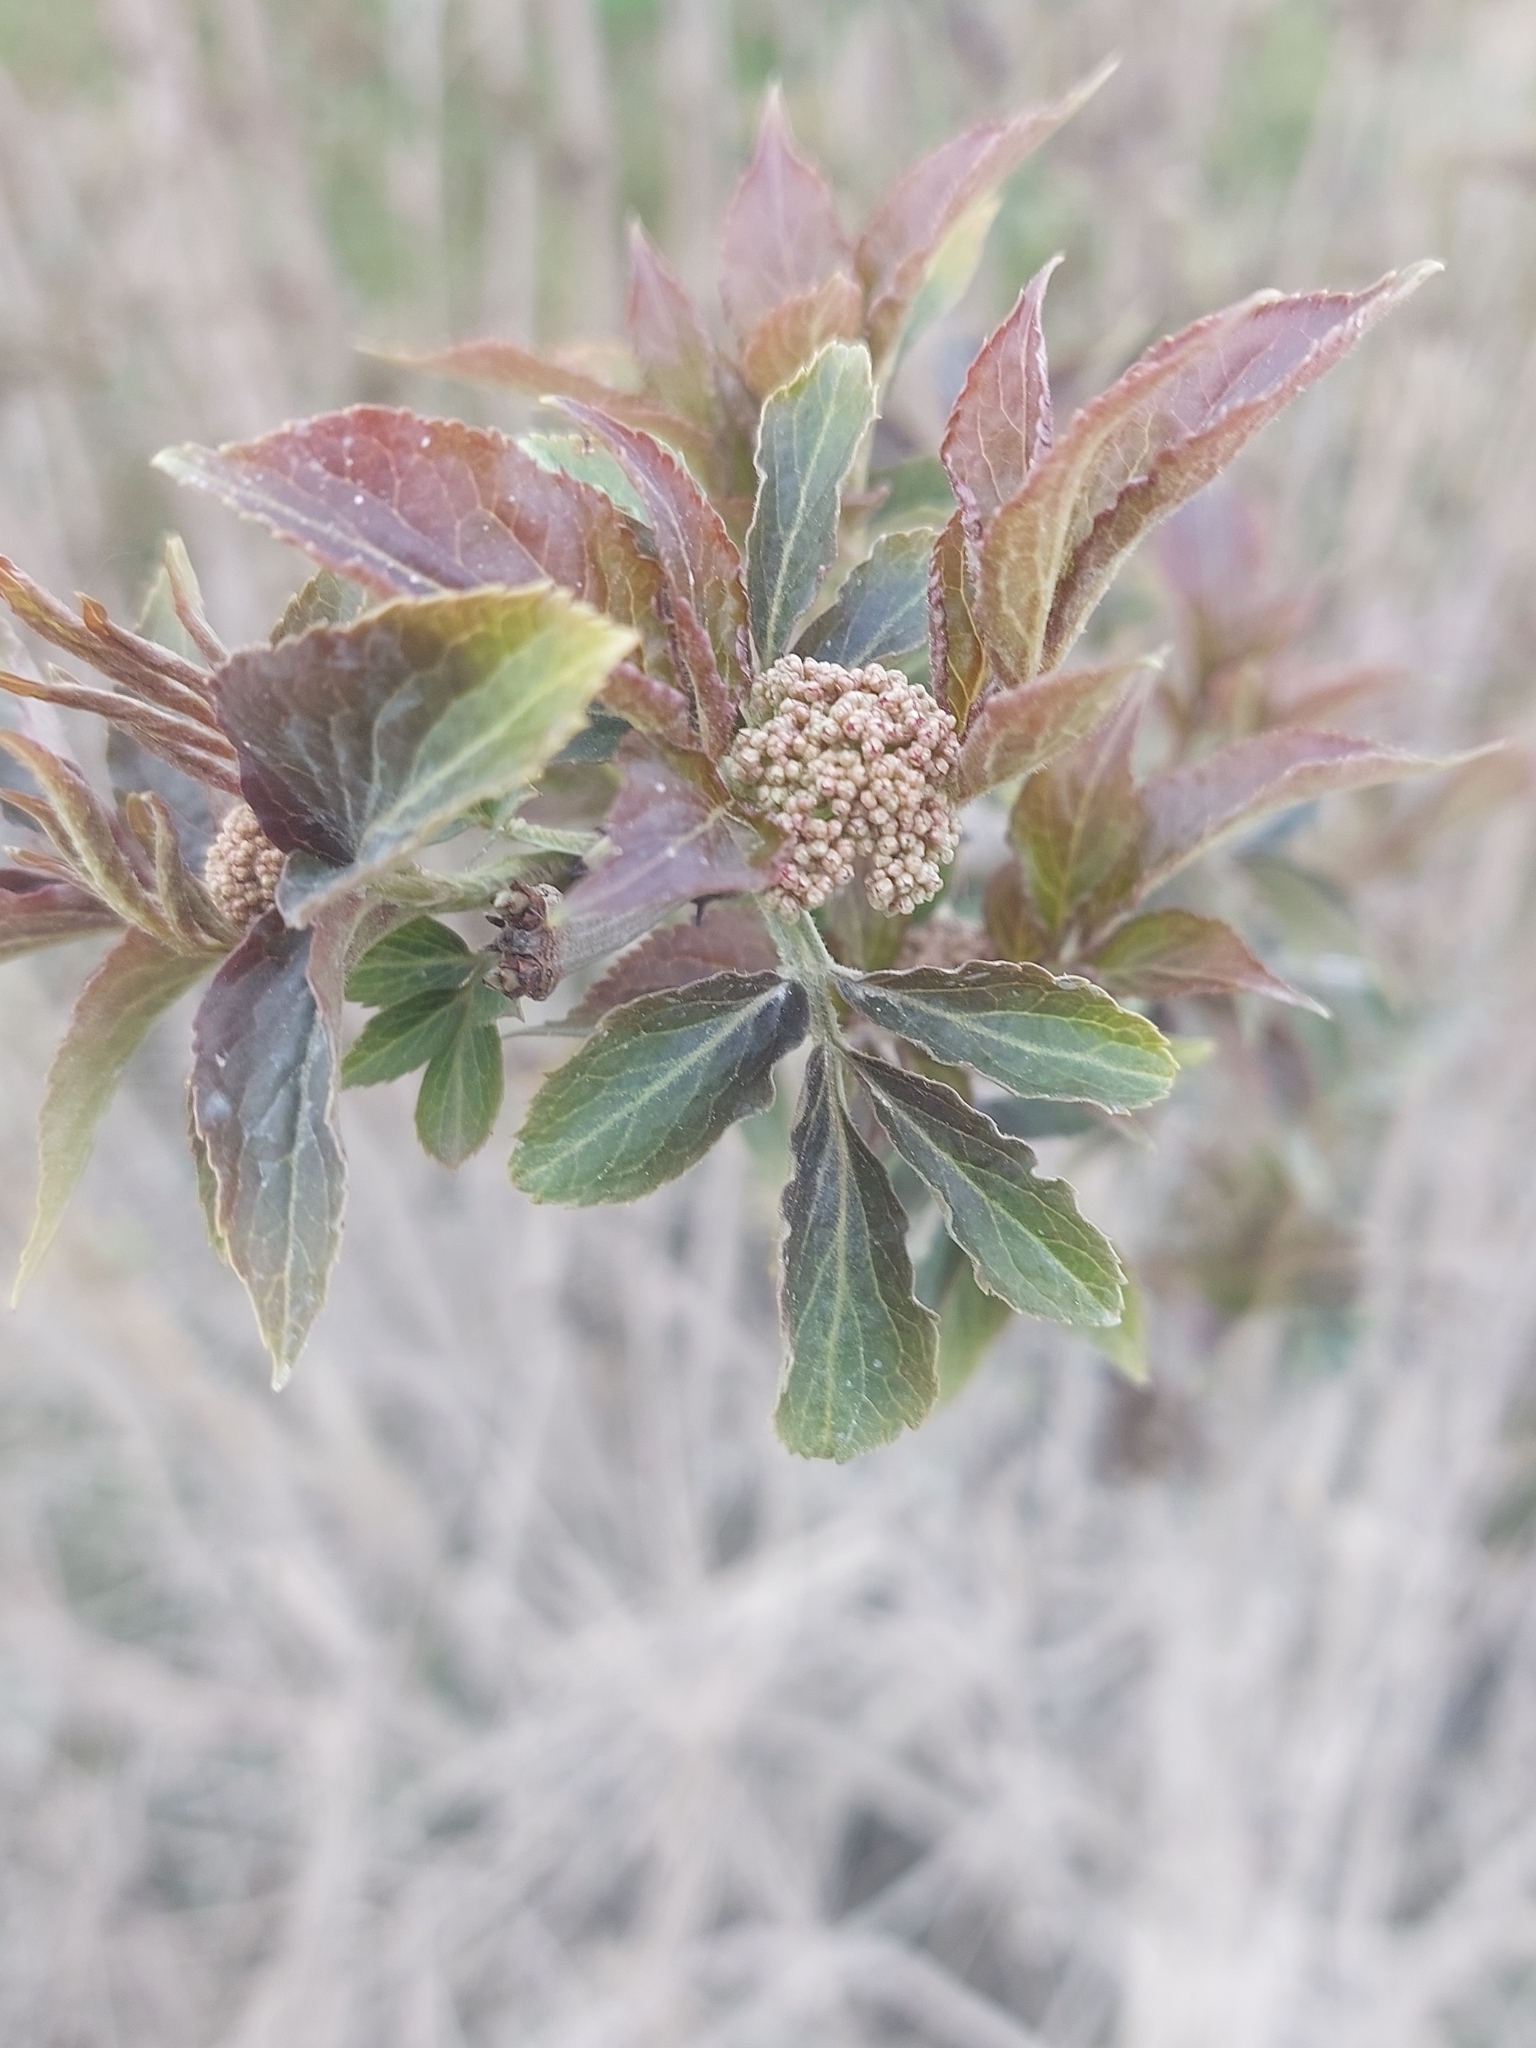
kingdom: Plantae
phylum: Tracheophyta
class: Magnoliopsida
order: Dipsacales
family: Viburnaceae
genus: Sambucus
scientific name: Sambucus nigra
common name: Elder
